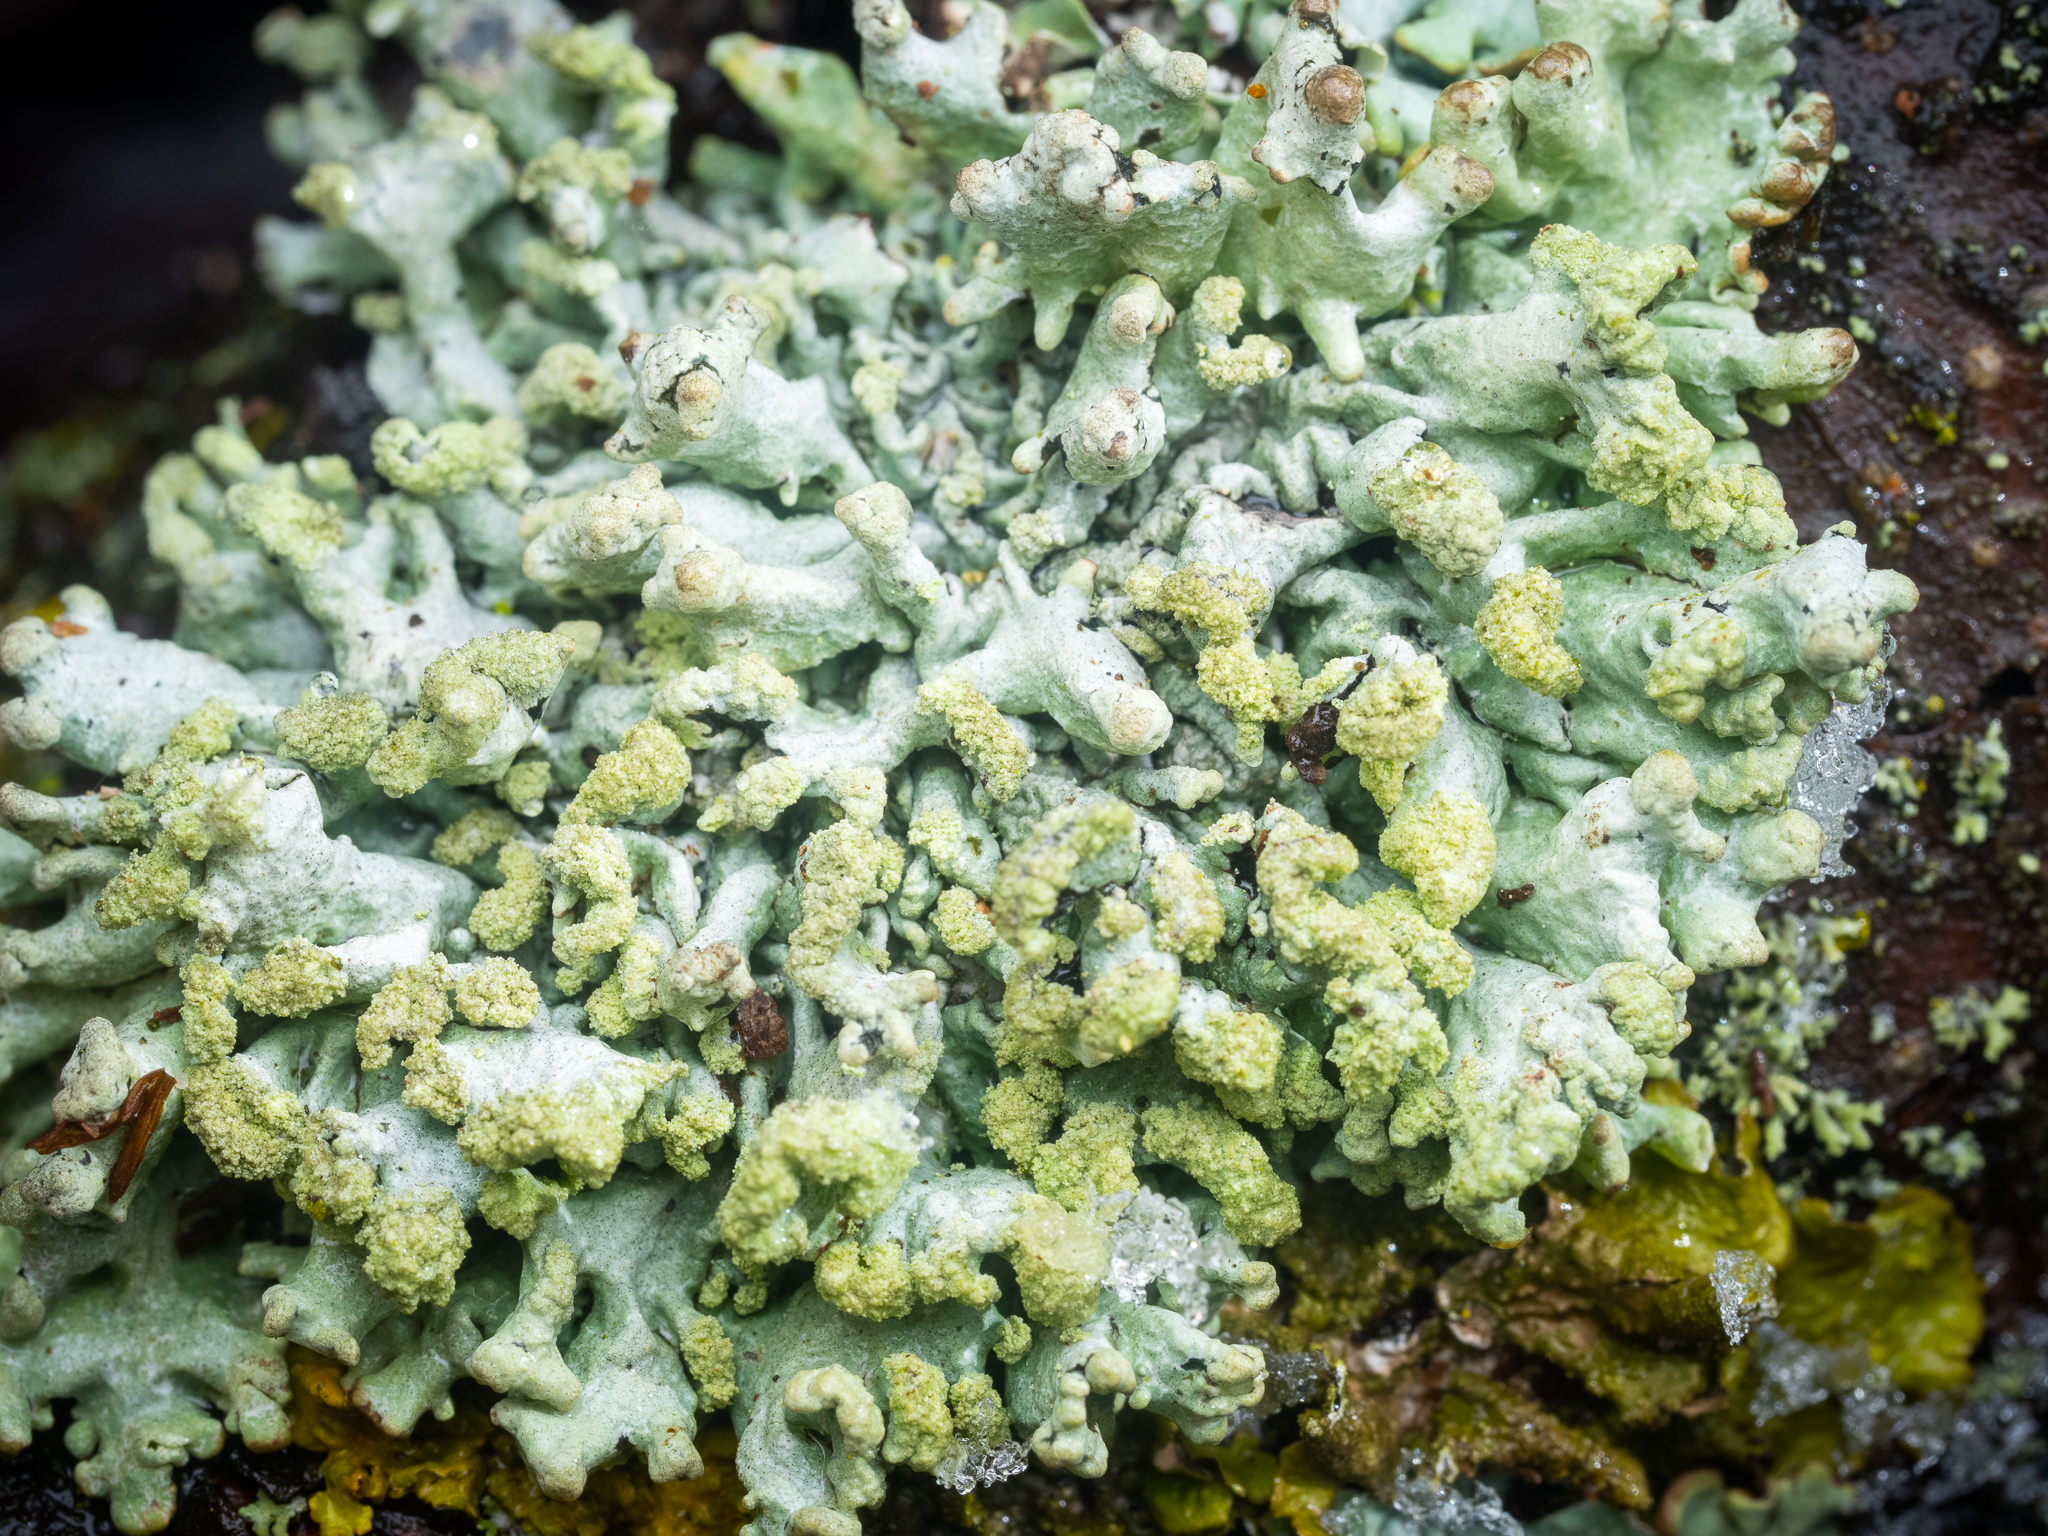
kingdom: Fungi
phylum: Ascomycota
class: Lecanoromycetes
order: Lecanorales
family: Parmeliaceae
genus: Hypogymnia
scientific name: Hypogymnia tubulosa
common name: Powder-headed tube lichen
